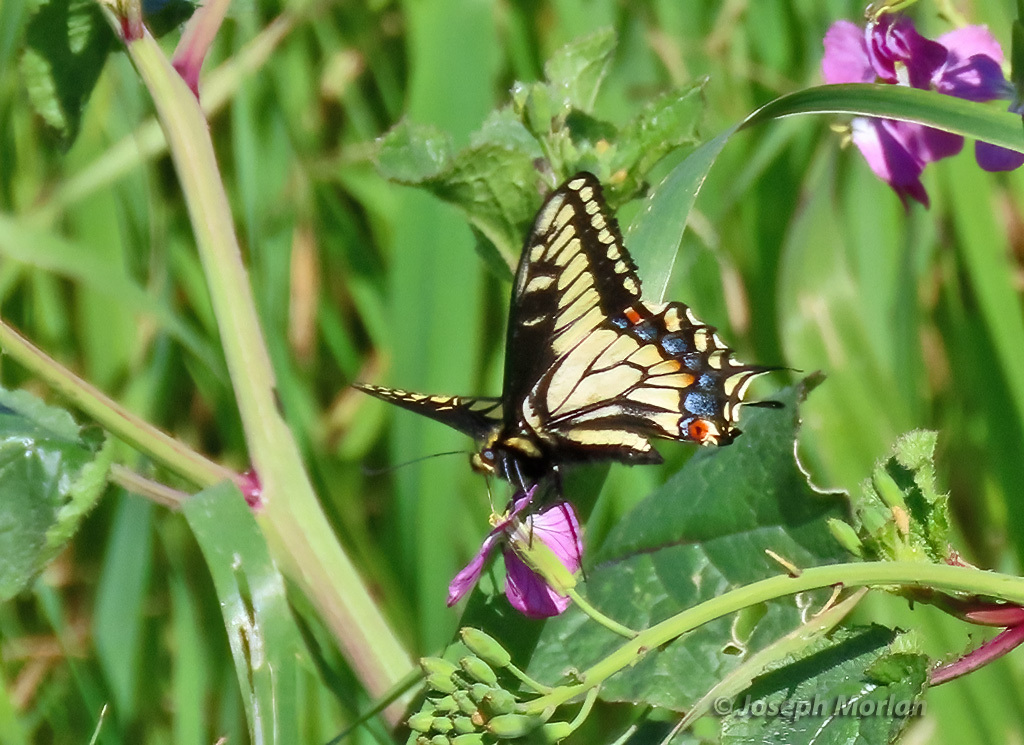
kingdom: Animalia
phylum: Arthropoda
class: Insecta
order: Lepidoptera
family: Papilionidae
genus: Papilio
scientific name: Papilio zelicaon
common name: Anise swallowtail
